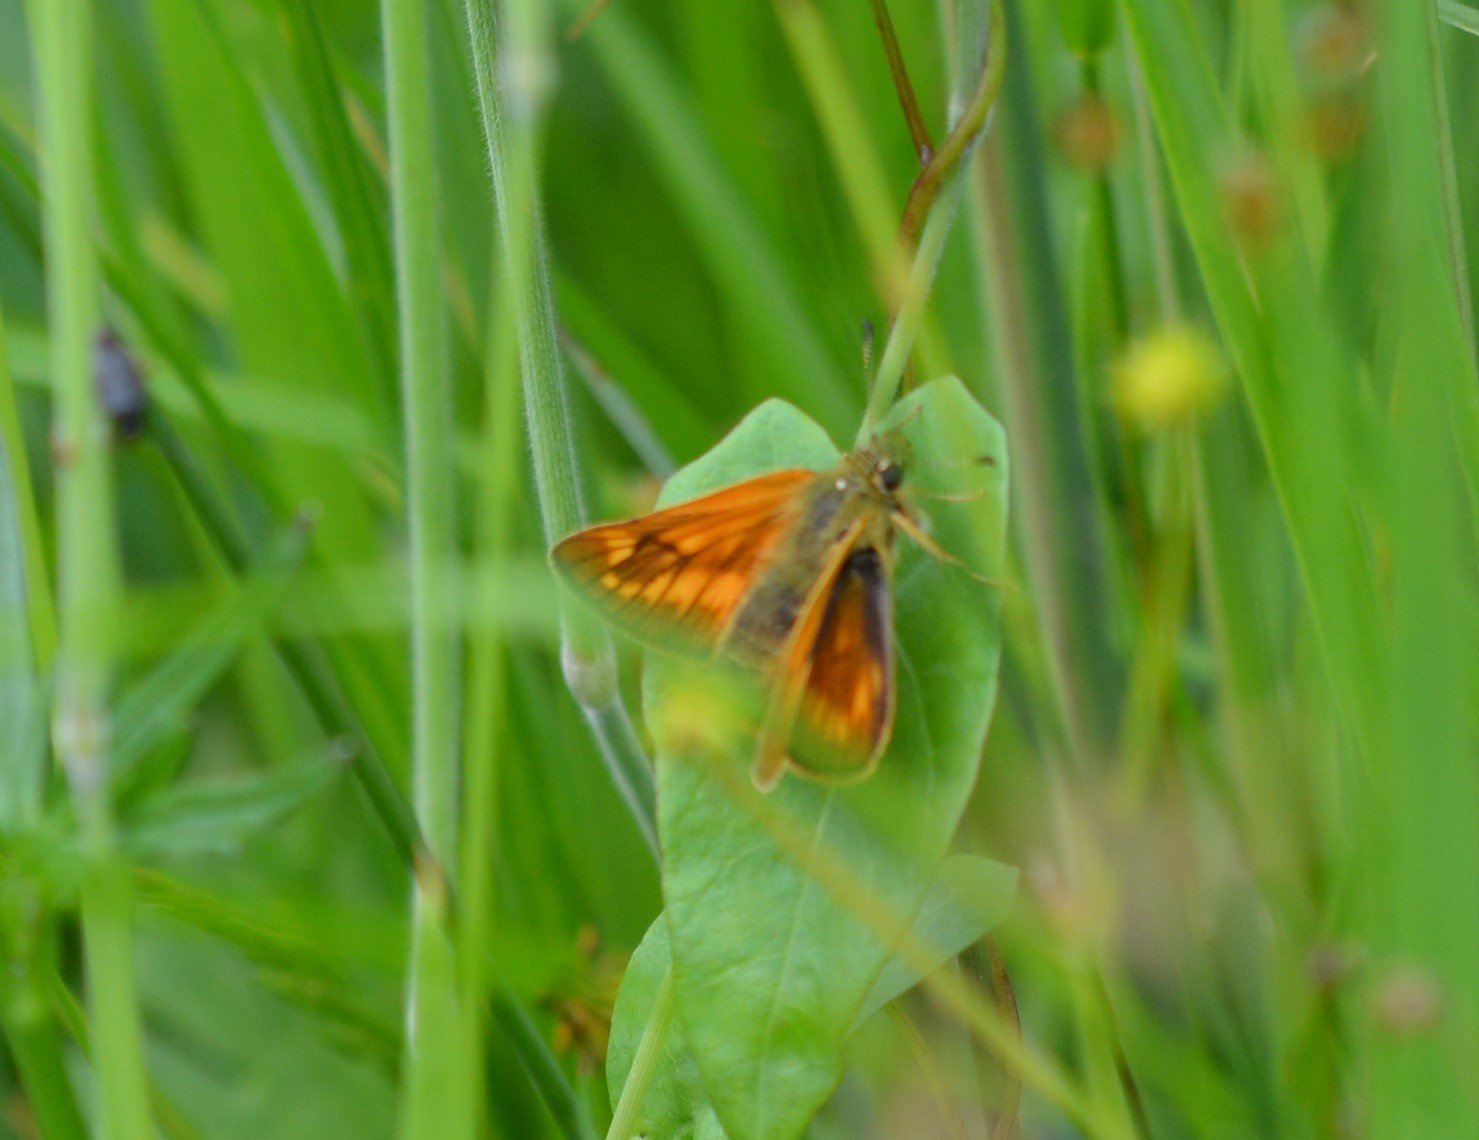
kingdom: Animalia
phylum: Arthropoda
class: Insecta
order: Lepidoptera
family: Hesperiidae
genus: Ochlodes
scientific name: Ochlodes venata
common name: Large skipper
